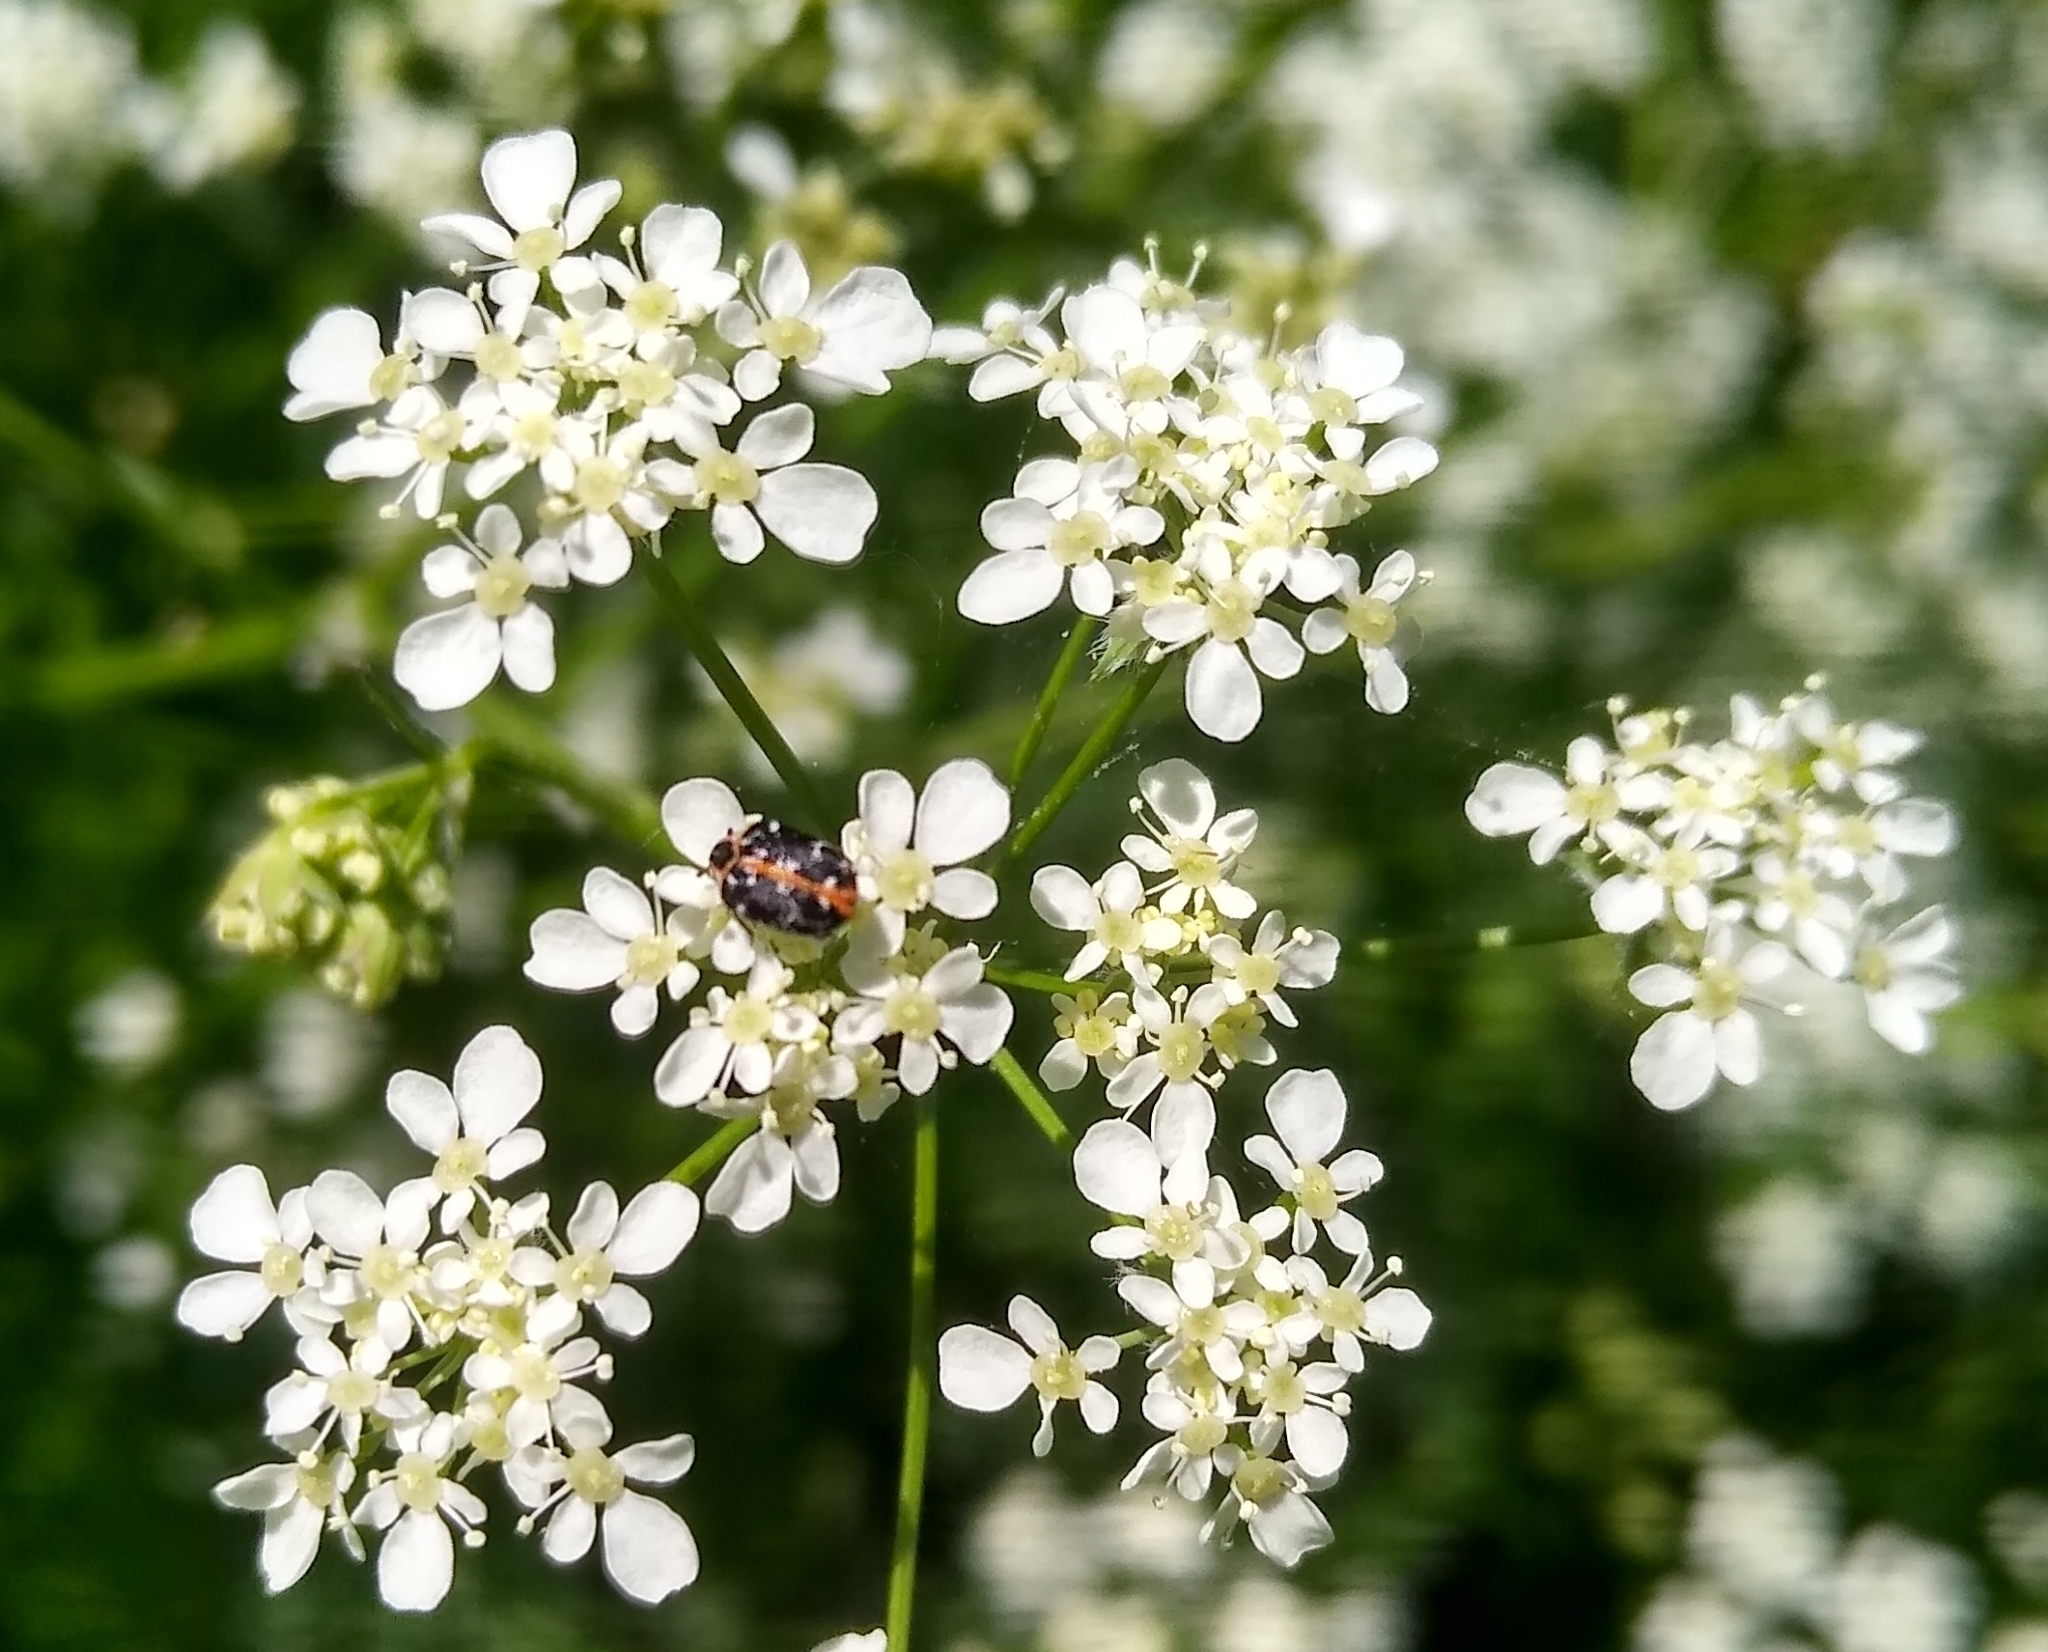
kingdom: Animalia
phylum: Arthropoda
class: Insecta
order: Coleoptera
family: Dermestidae
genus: Anthrenus
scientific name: Anthrenus scrophulariae
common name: Buffalo carpet beetle
